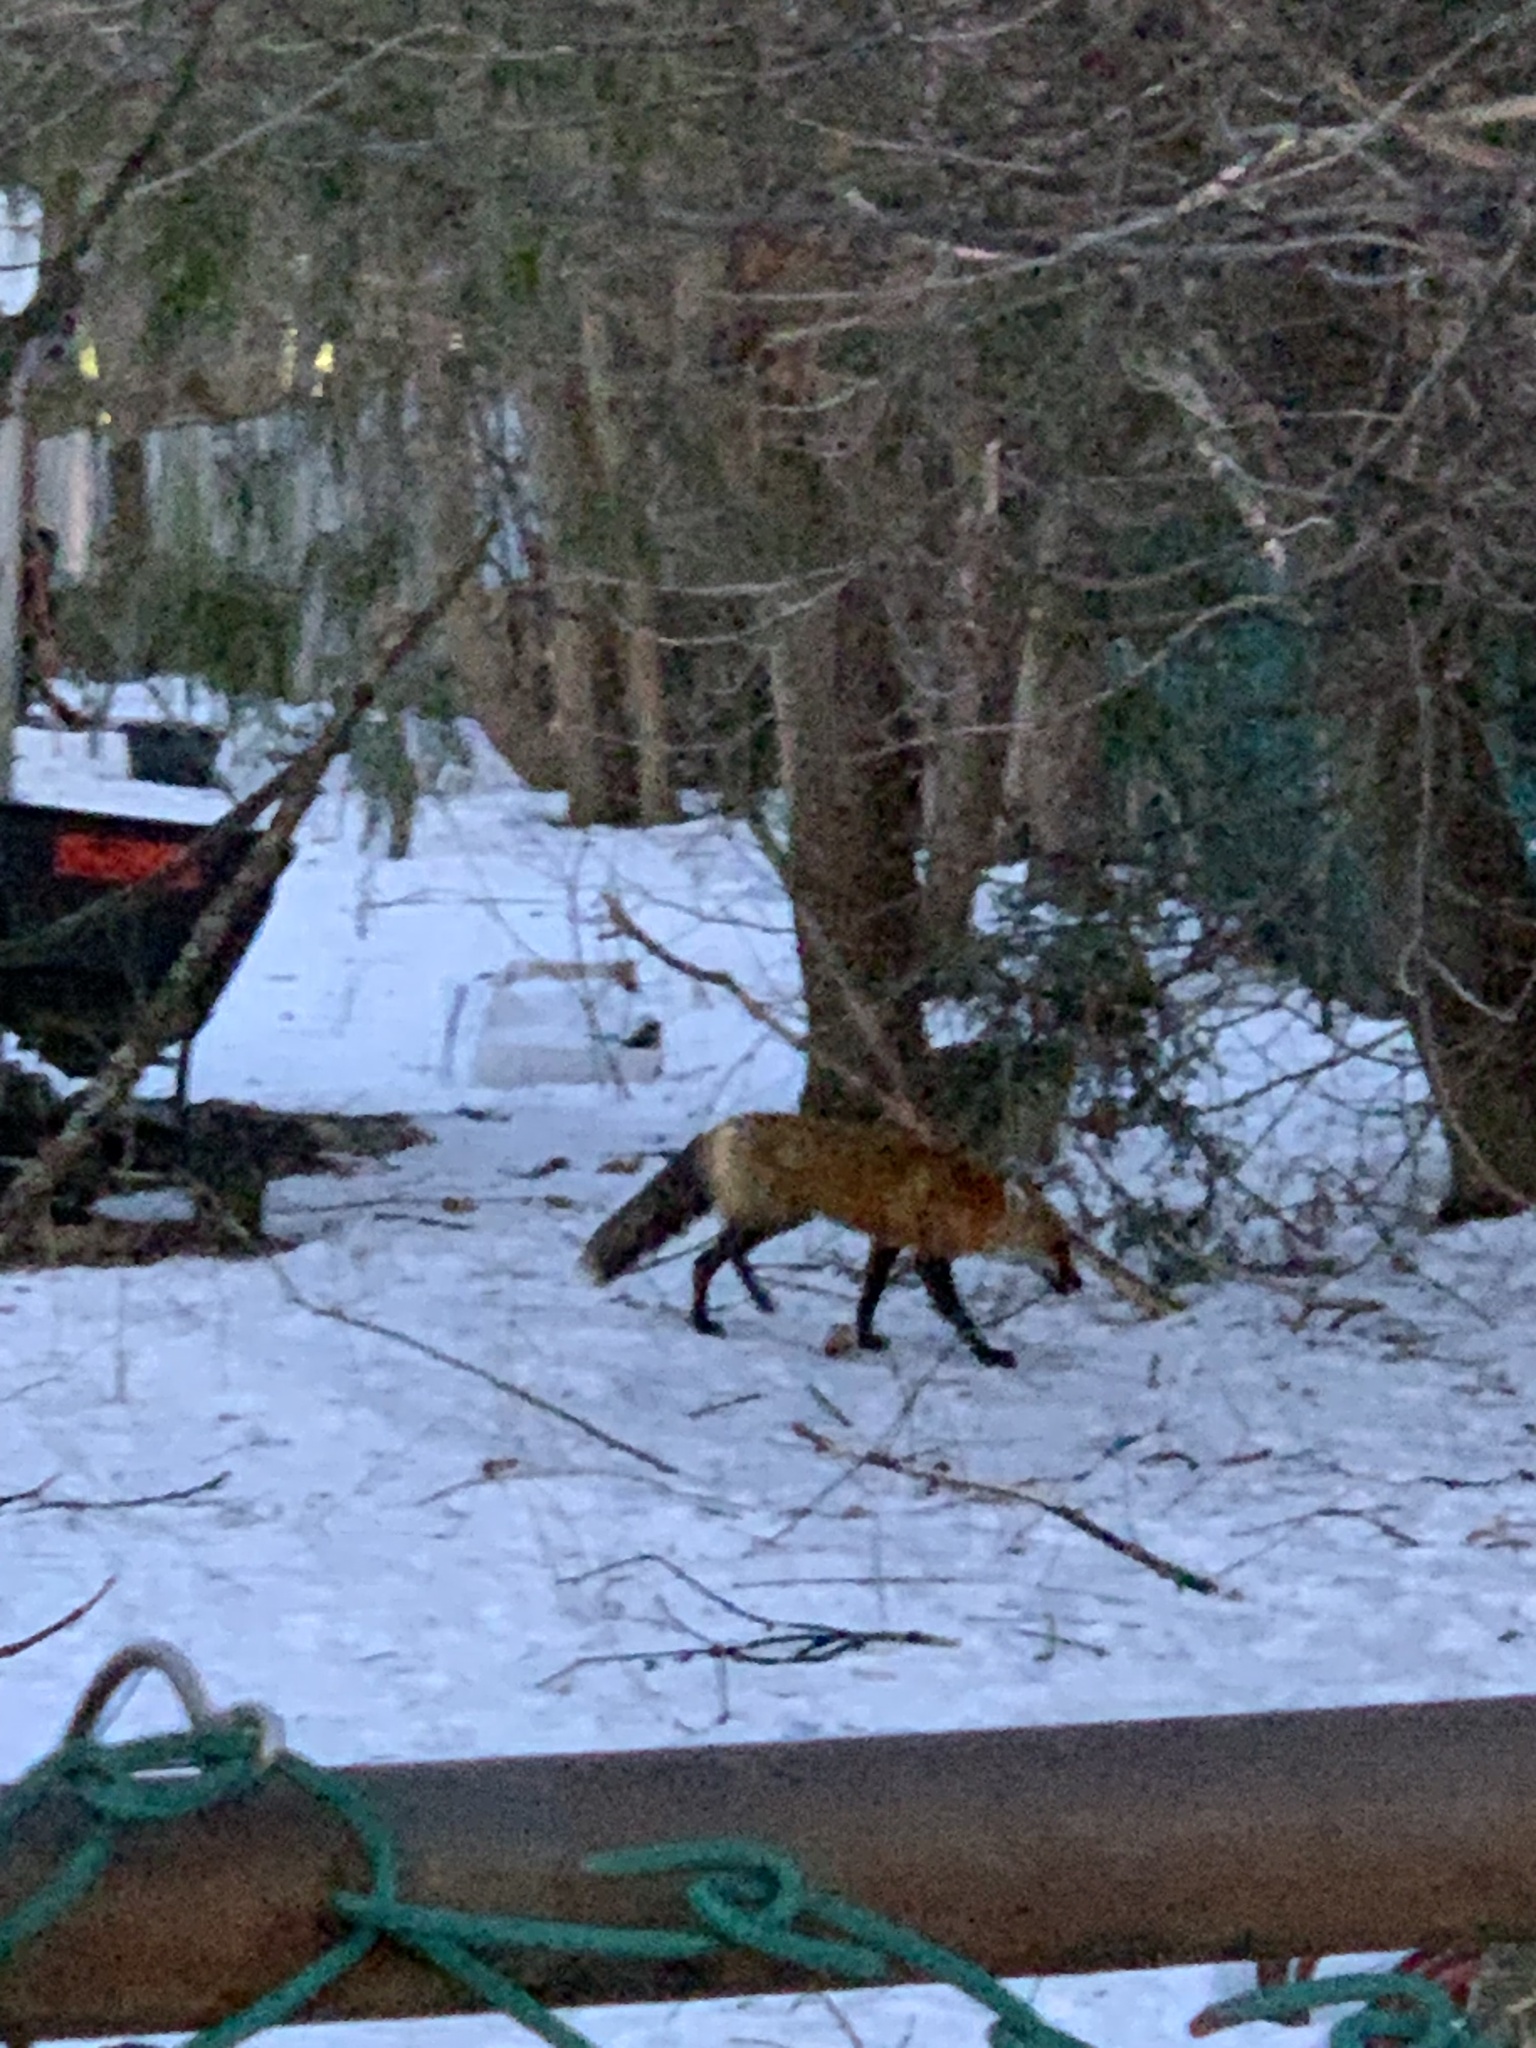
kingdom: Animalia
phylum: Chordata
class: Mammalia
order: Carnivora
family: Canidae
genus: Vulpes
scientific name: Vulpes vulpes
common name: Red fox
